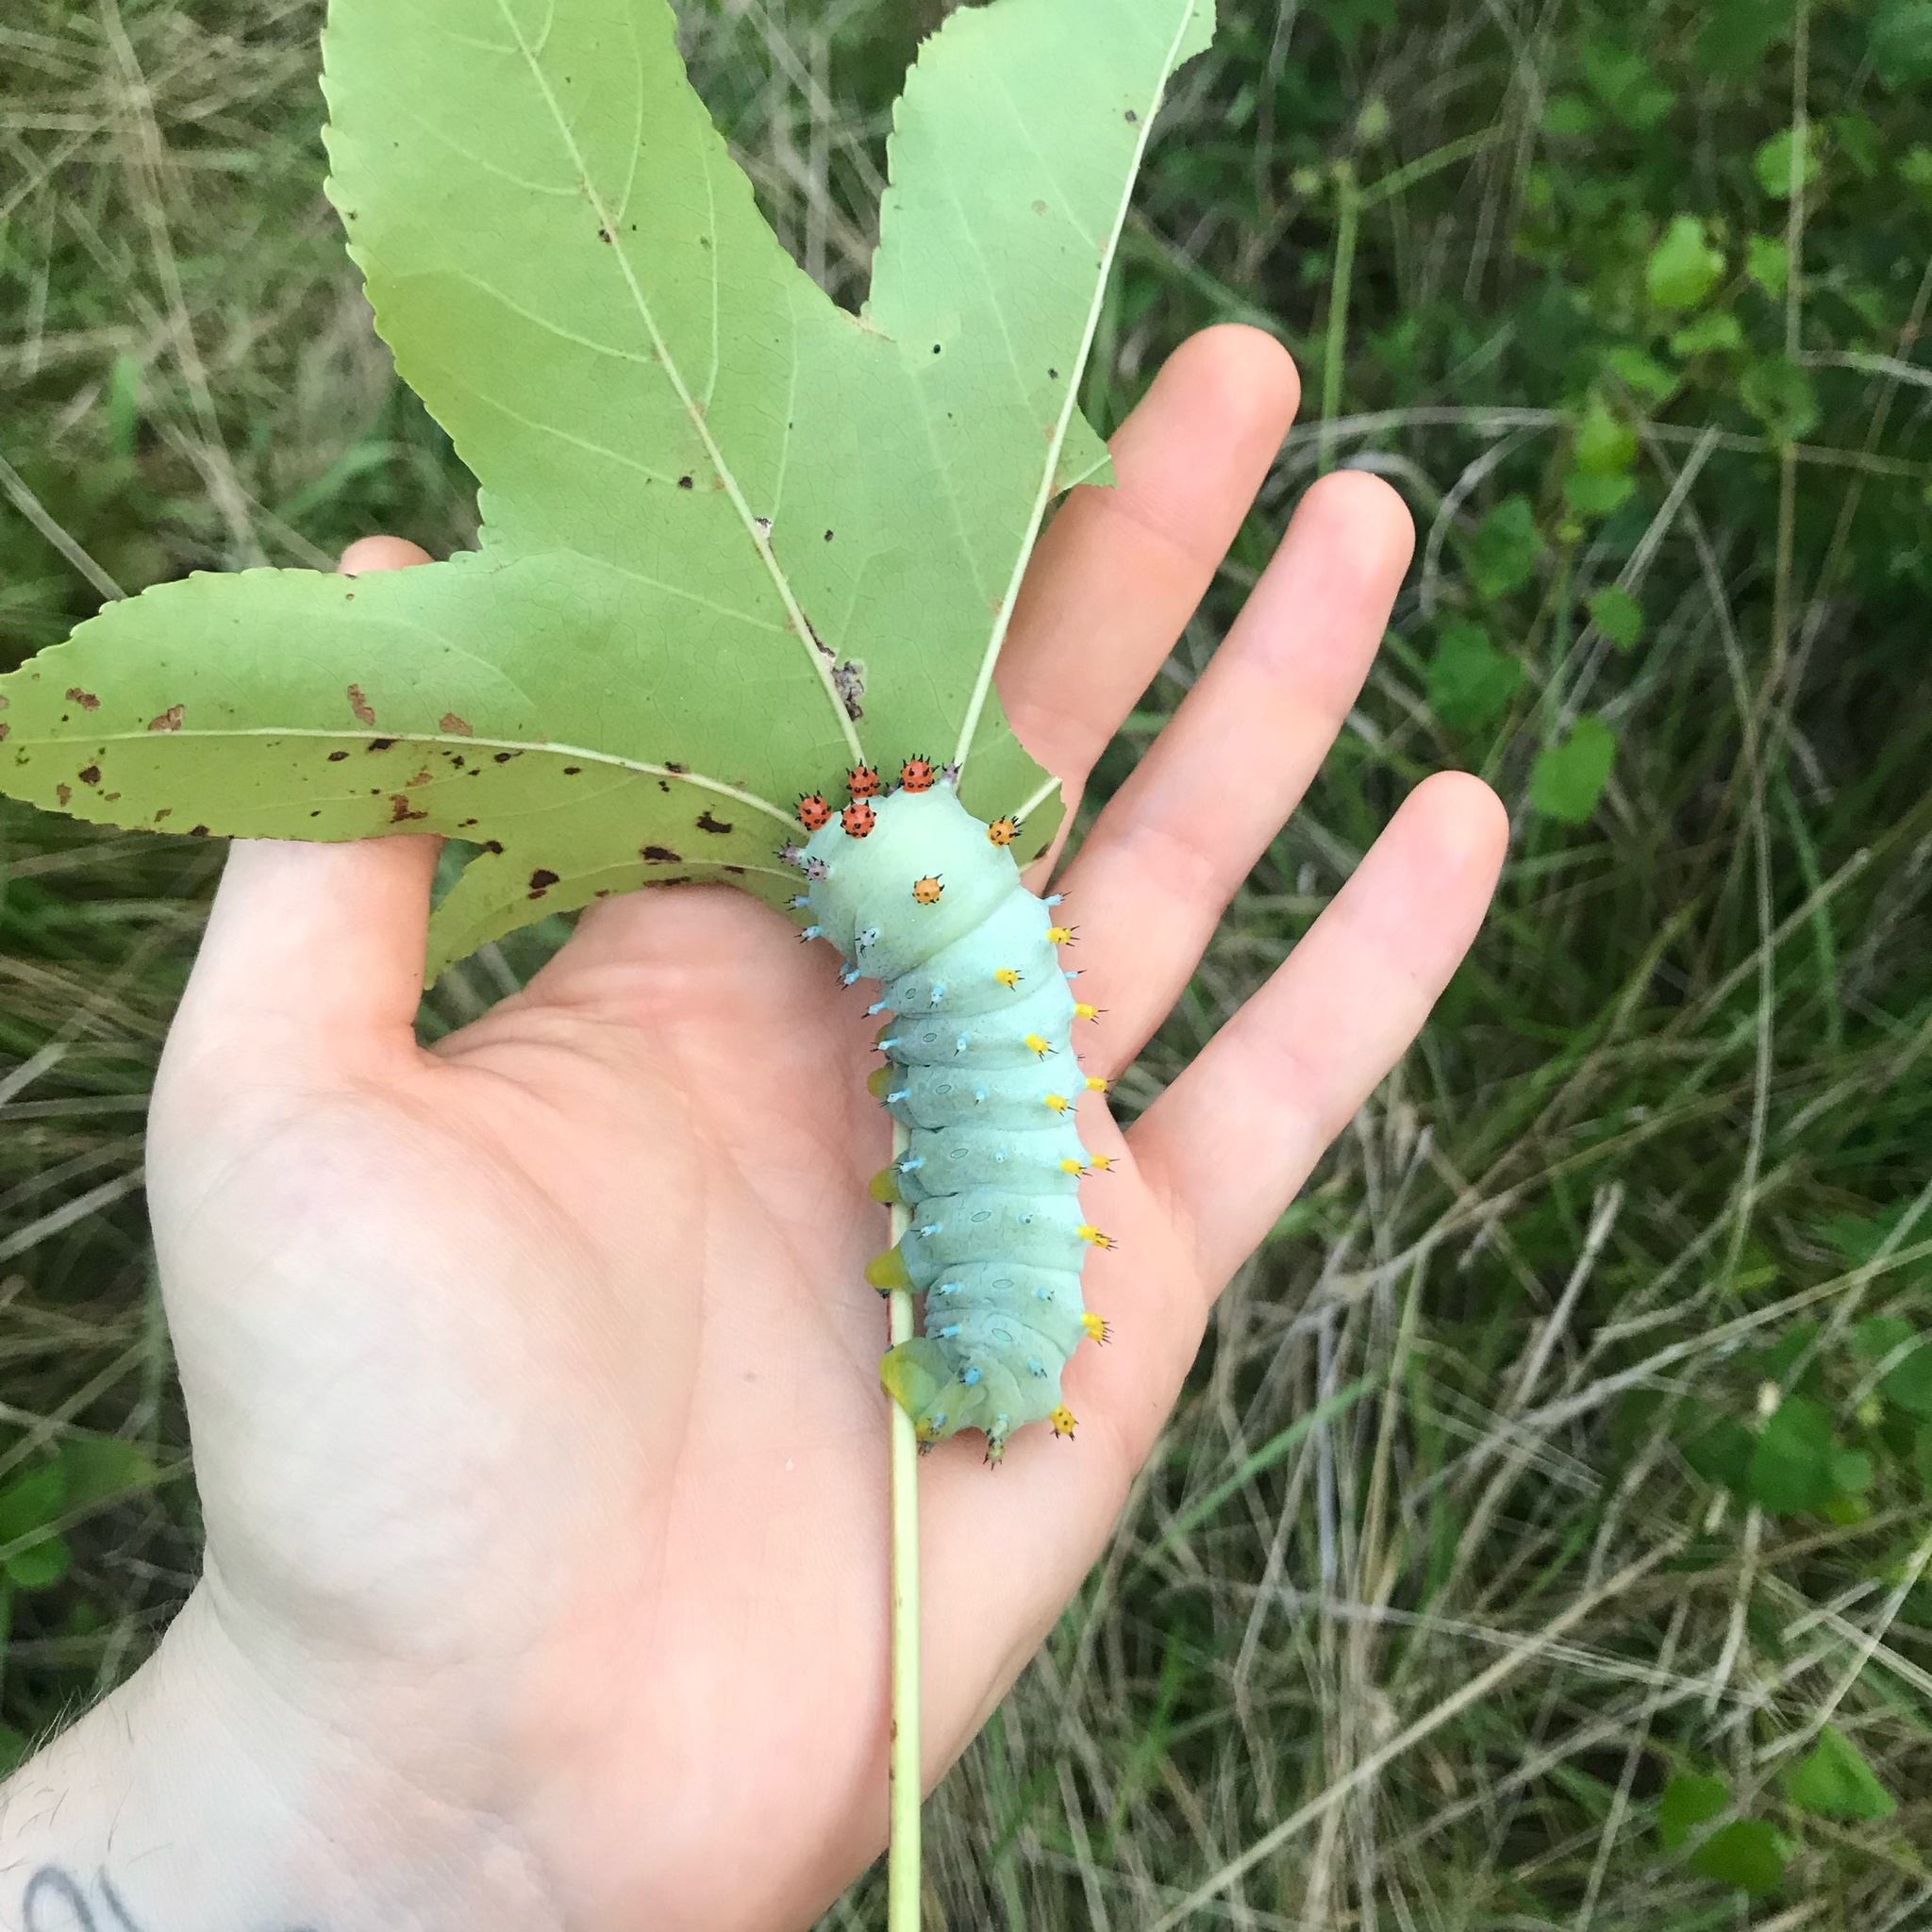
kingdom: Animalia
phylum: Arthropoda
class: Insecta
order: Lepidoptera
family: Saturniidae
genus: Hyalophora
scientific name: Hyalophora cecropia
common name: Cecropia silkmoth
